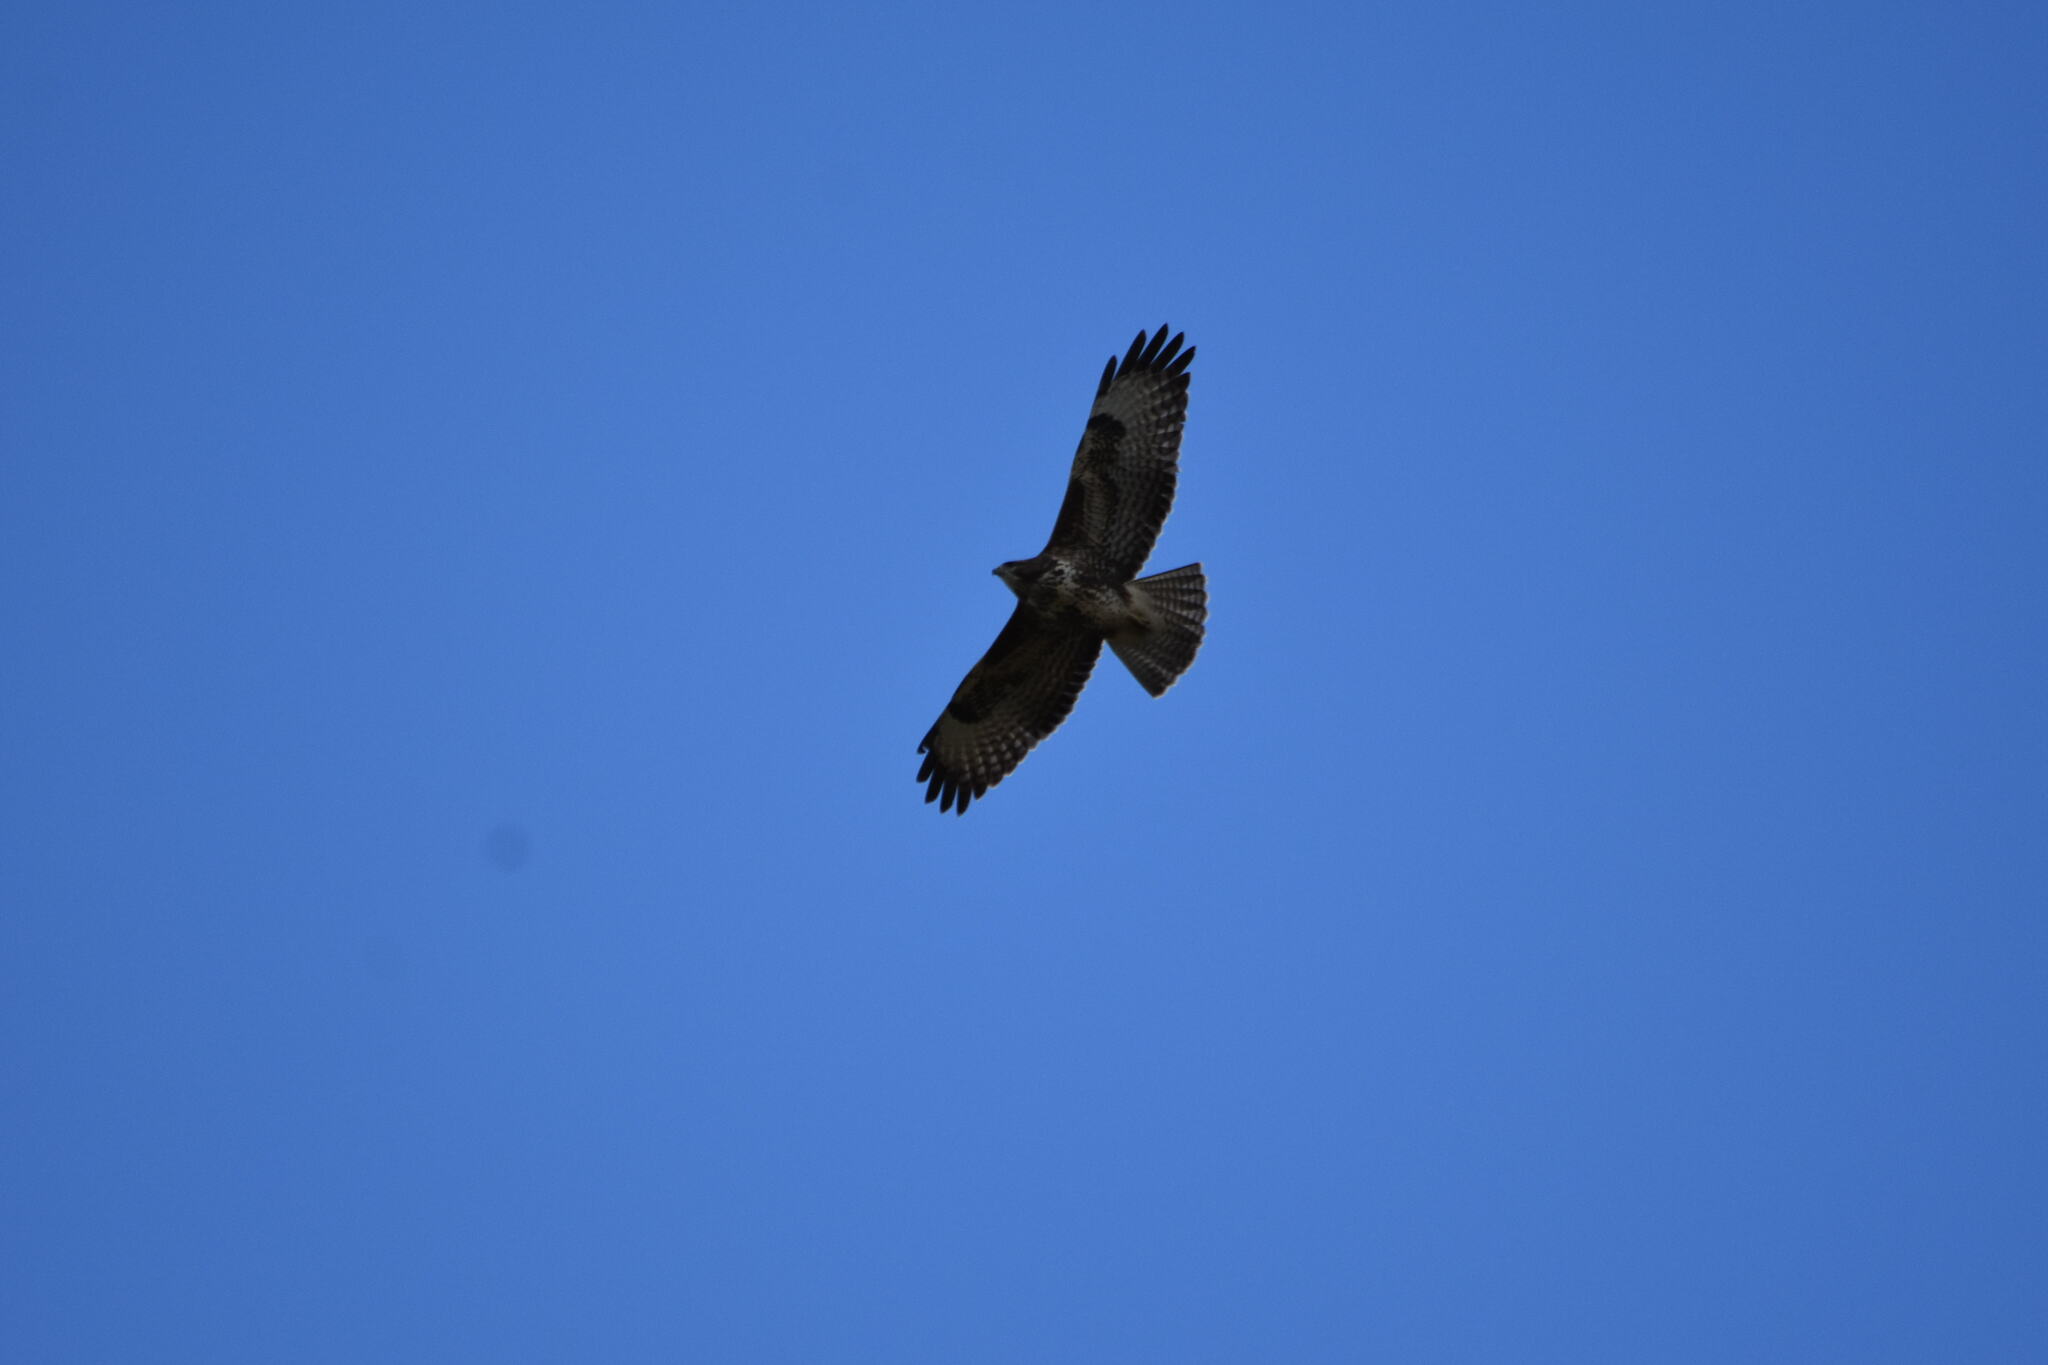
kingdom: Animalia
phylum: Chordata
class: Aves
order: Accipitriformes
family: Accipitridae
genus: Buteo
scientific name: Buteo buteo
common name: Common buzzard
